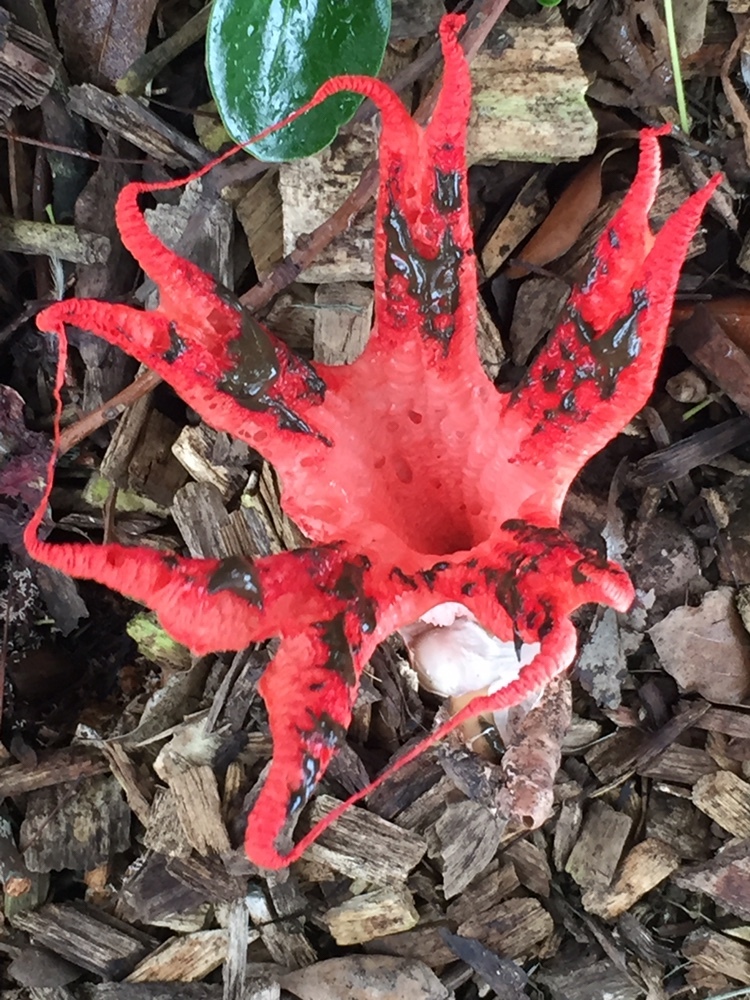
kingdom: Fungi
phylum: Basidiomycota
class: Agaricomycetes
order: Phallales
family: Phallaceae
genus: Clathrus
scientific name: Clathrus archeri
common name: Devil's fingers
